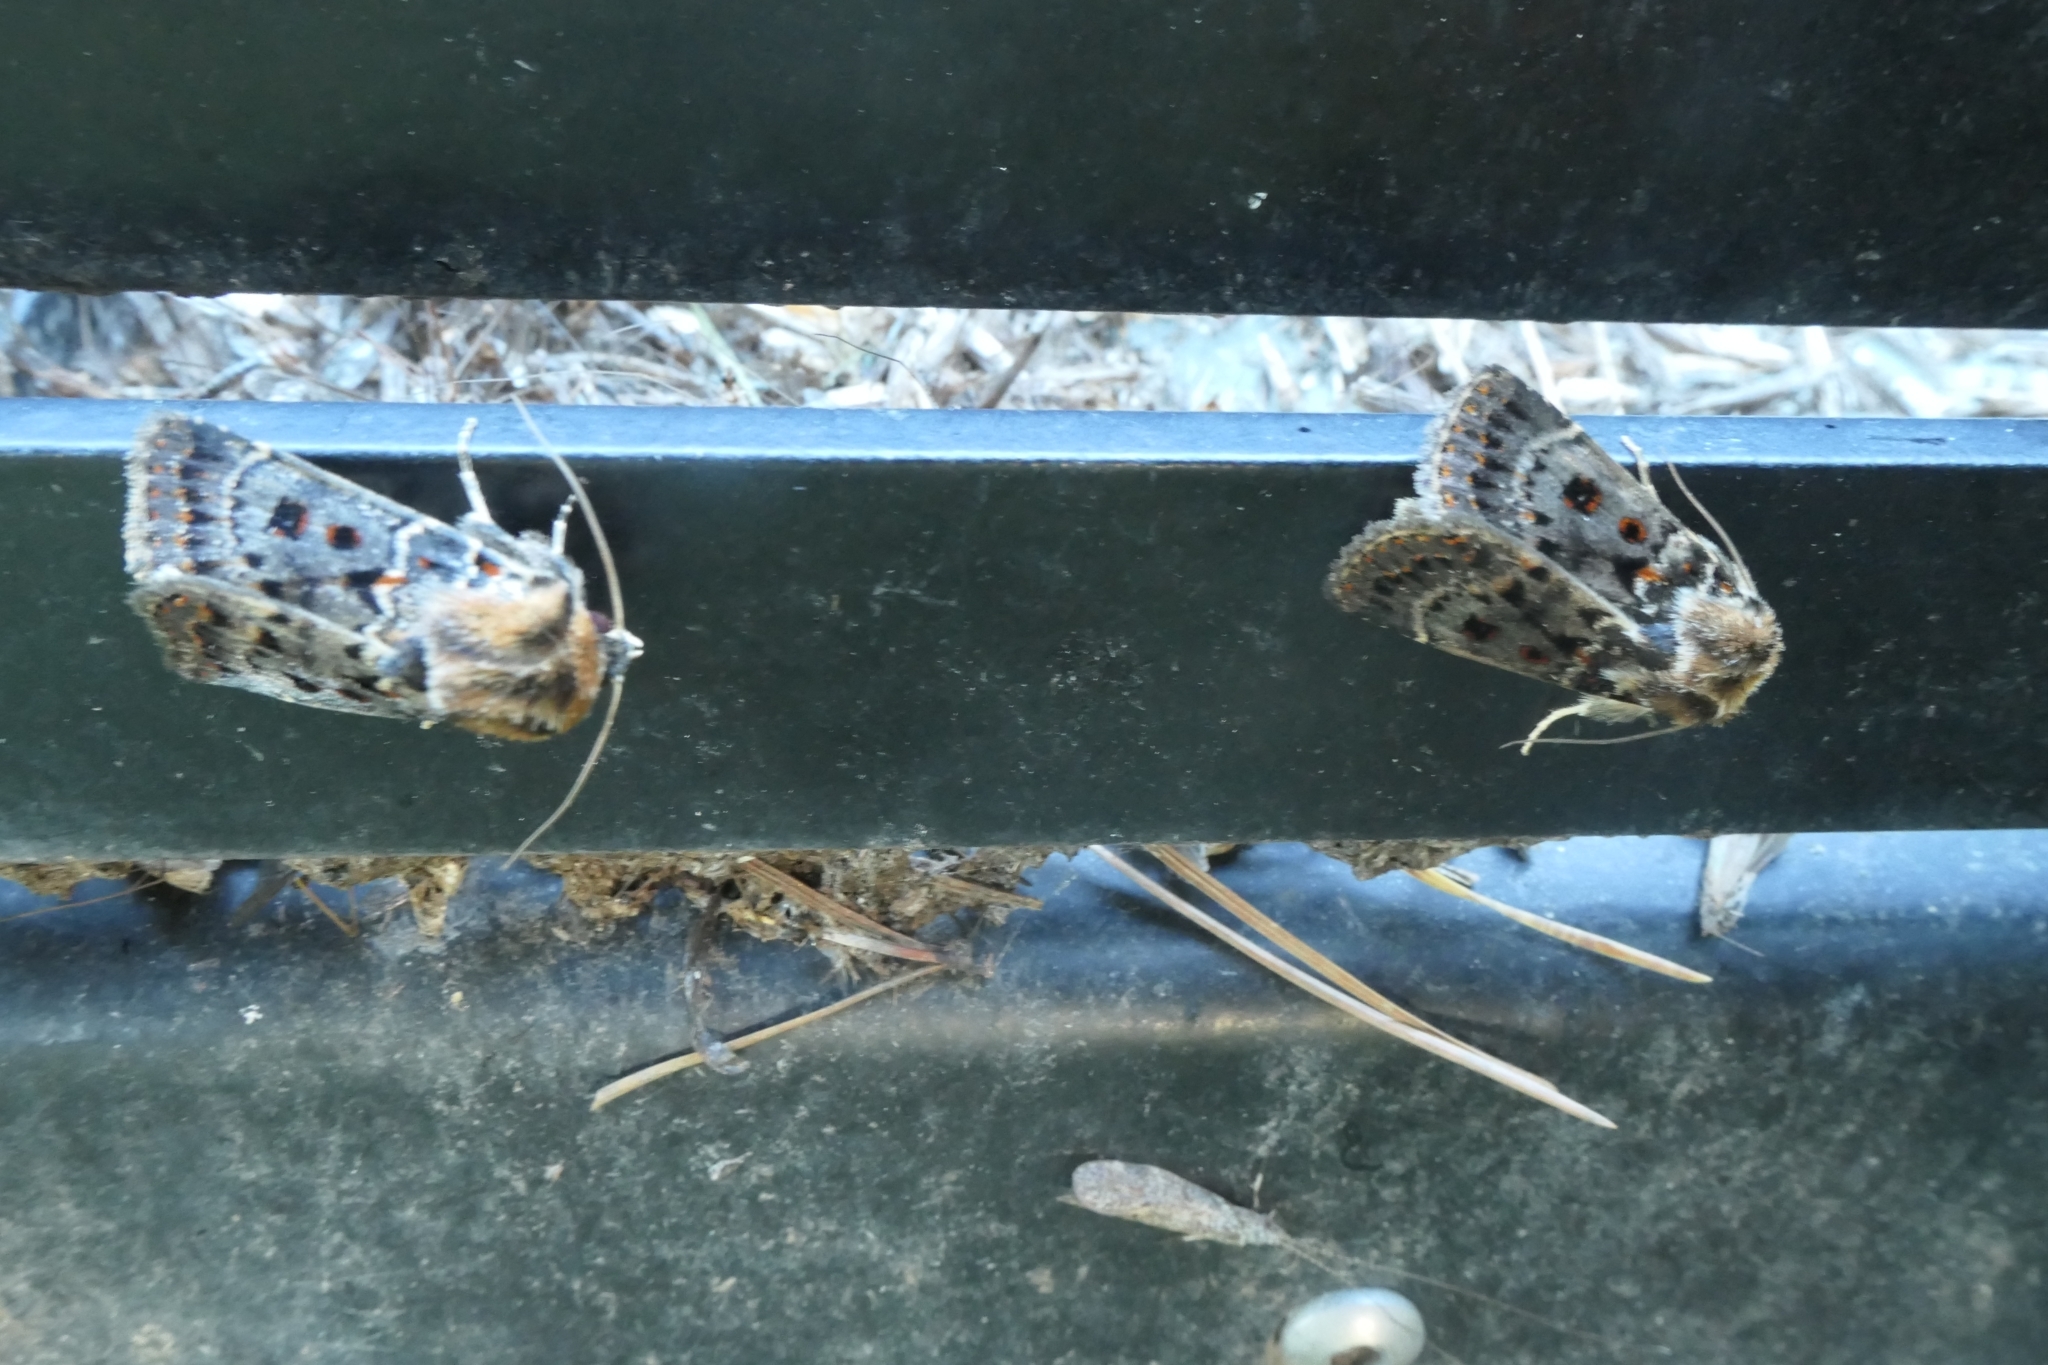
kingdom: Animalia
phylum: Arthropoda
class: Insecta
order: Lepidoptera
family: Noctuidae
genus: Proteuxoa
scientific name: Proteuxoa sanguinipuncta
